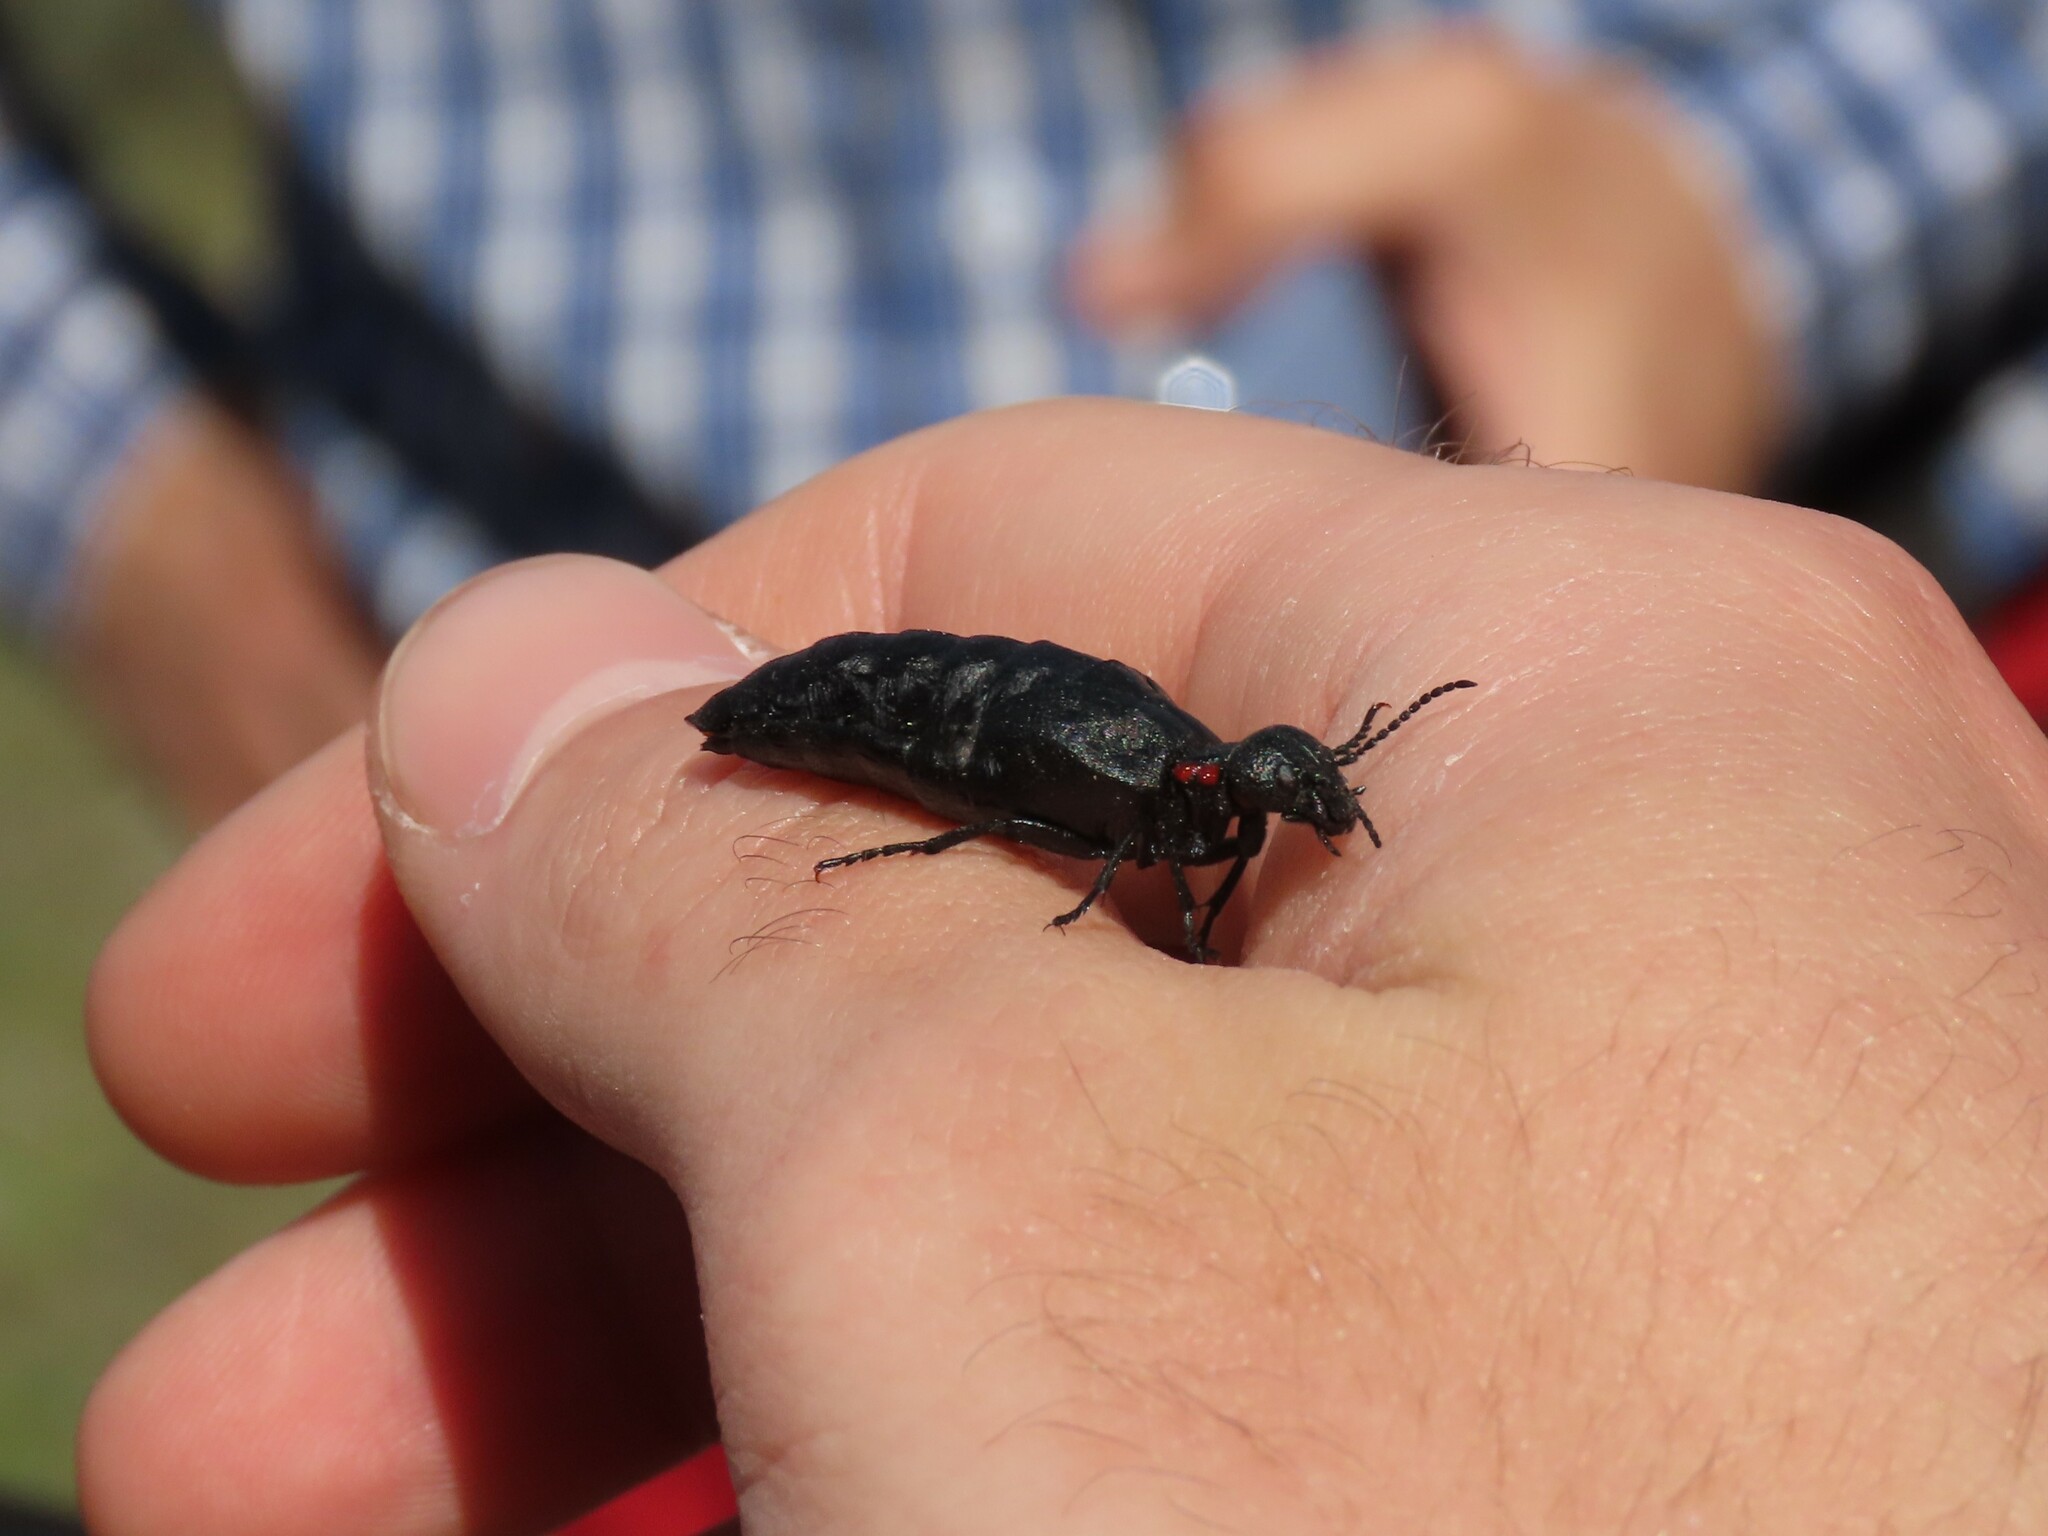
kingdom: Animalia
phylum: Arthropoda
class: Insecta
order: Coleoptera
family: Meloidae
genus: Physomeloe
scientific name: Physomeloe corallifer
